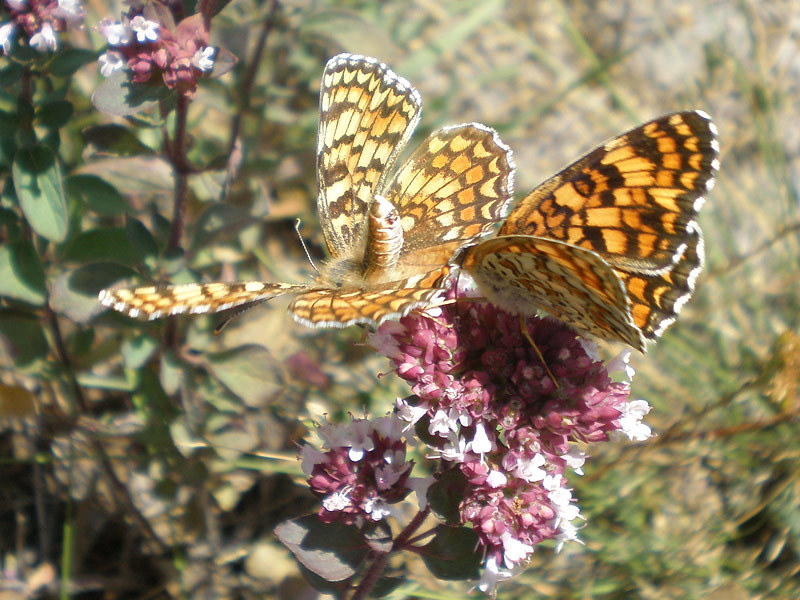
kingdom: Animalia
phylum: Arthropoda
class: Insecta
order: Lepidoptera
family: Nymphalidae
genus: Melitaea
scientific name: Melitaea phoebe
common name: Knapweed fritillary
